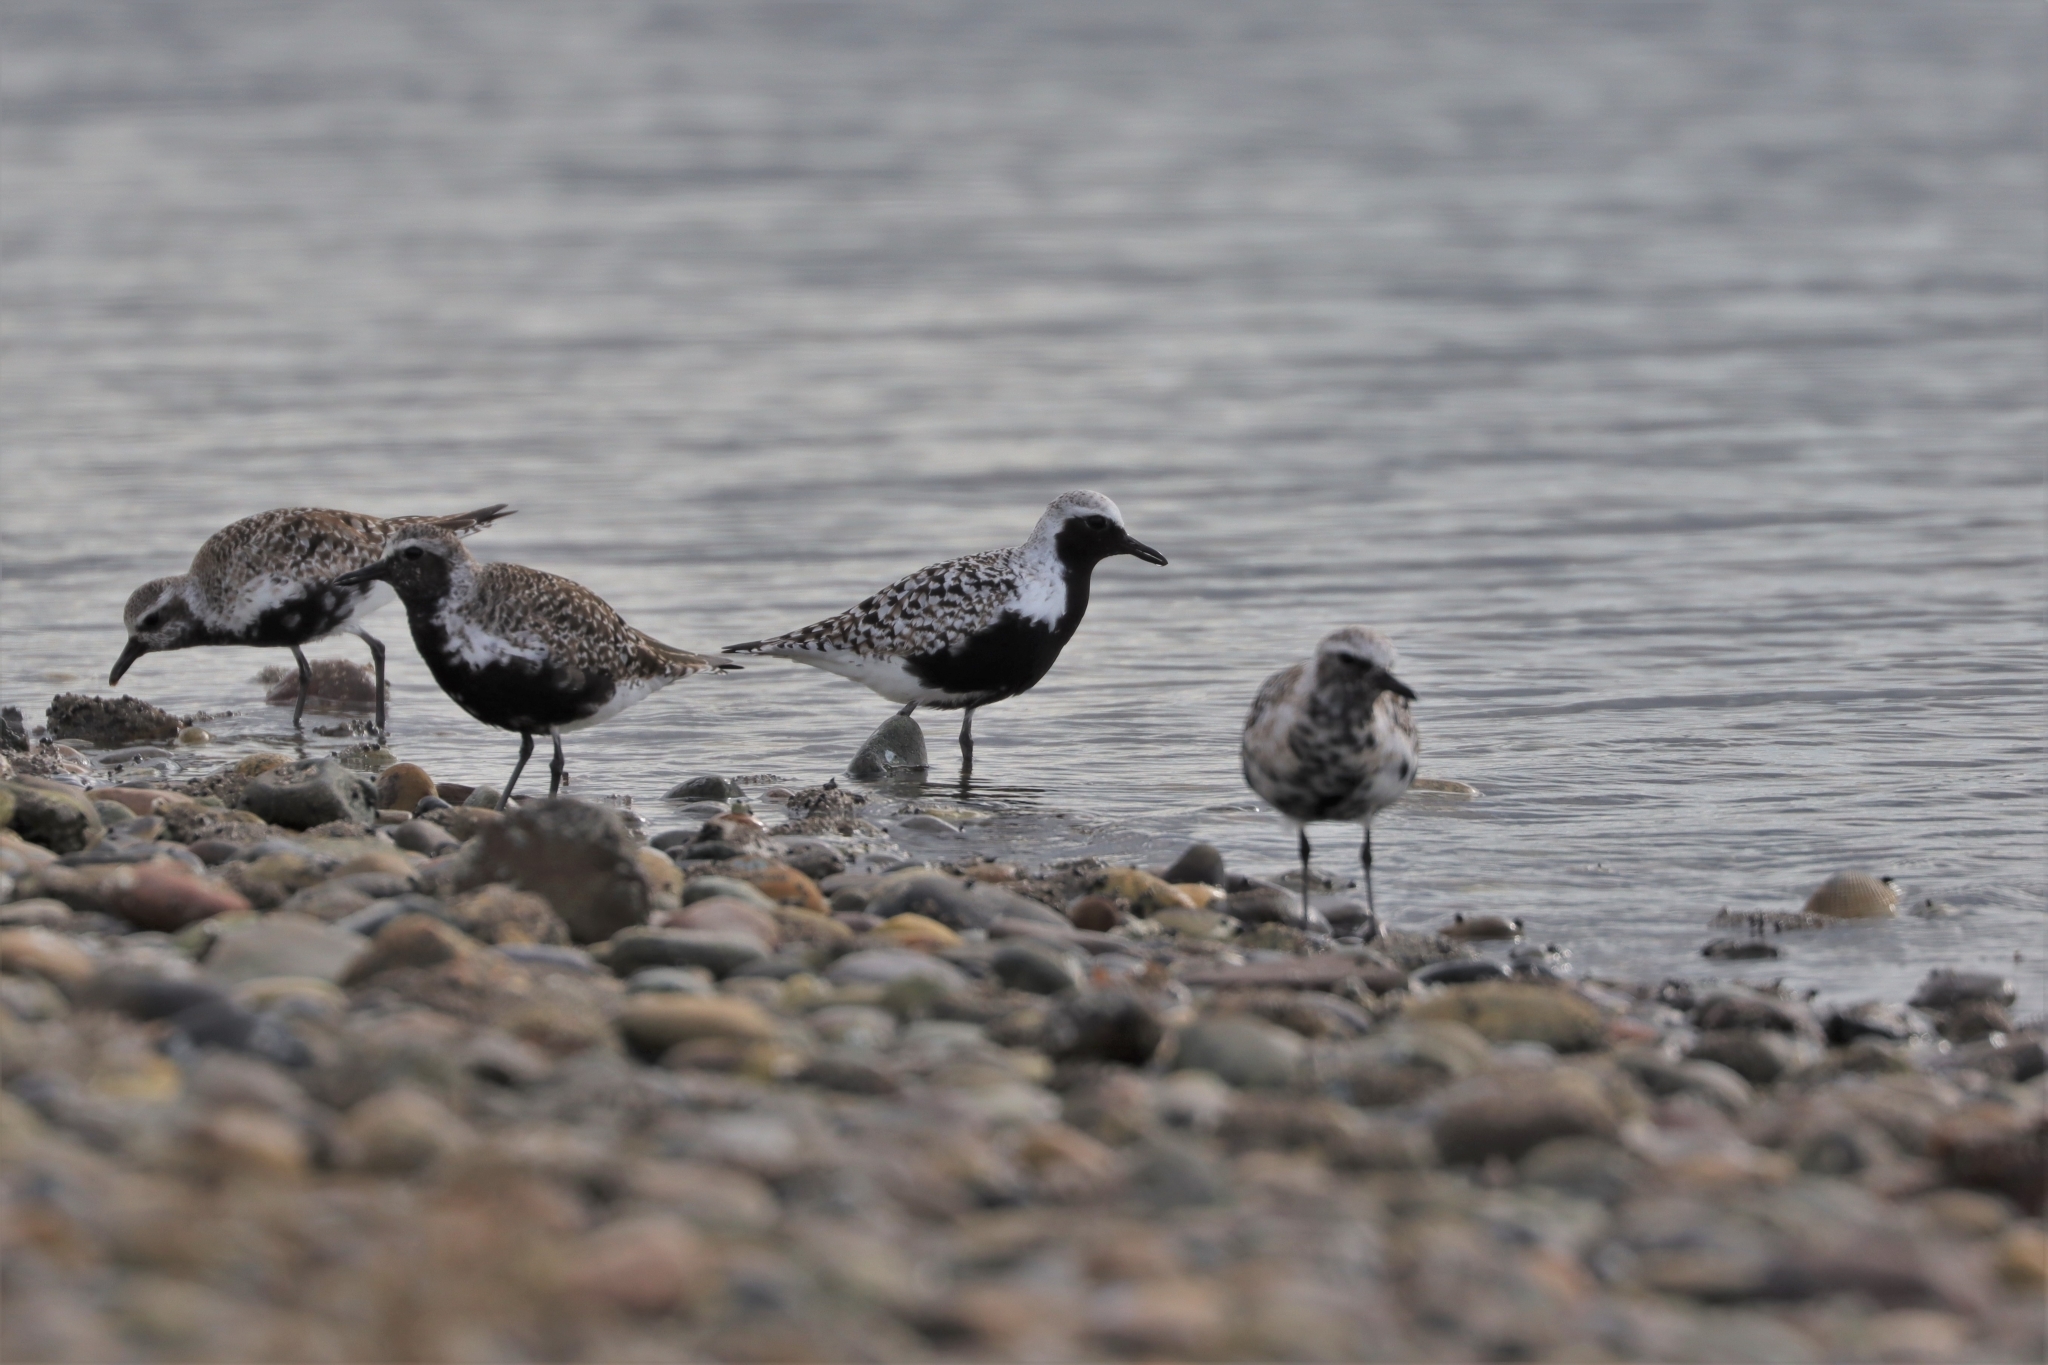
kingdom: Animalia
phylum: Chordata
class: Aves
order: Charadriiformes
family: Charadriidae
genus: Pluvialis
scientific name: Pluvialis squatarola
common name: Grey plover
